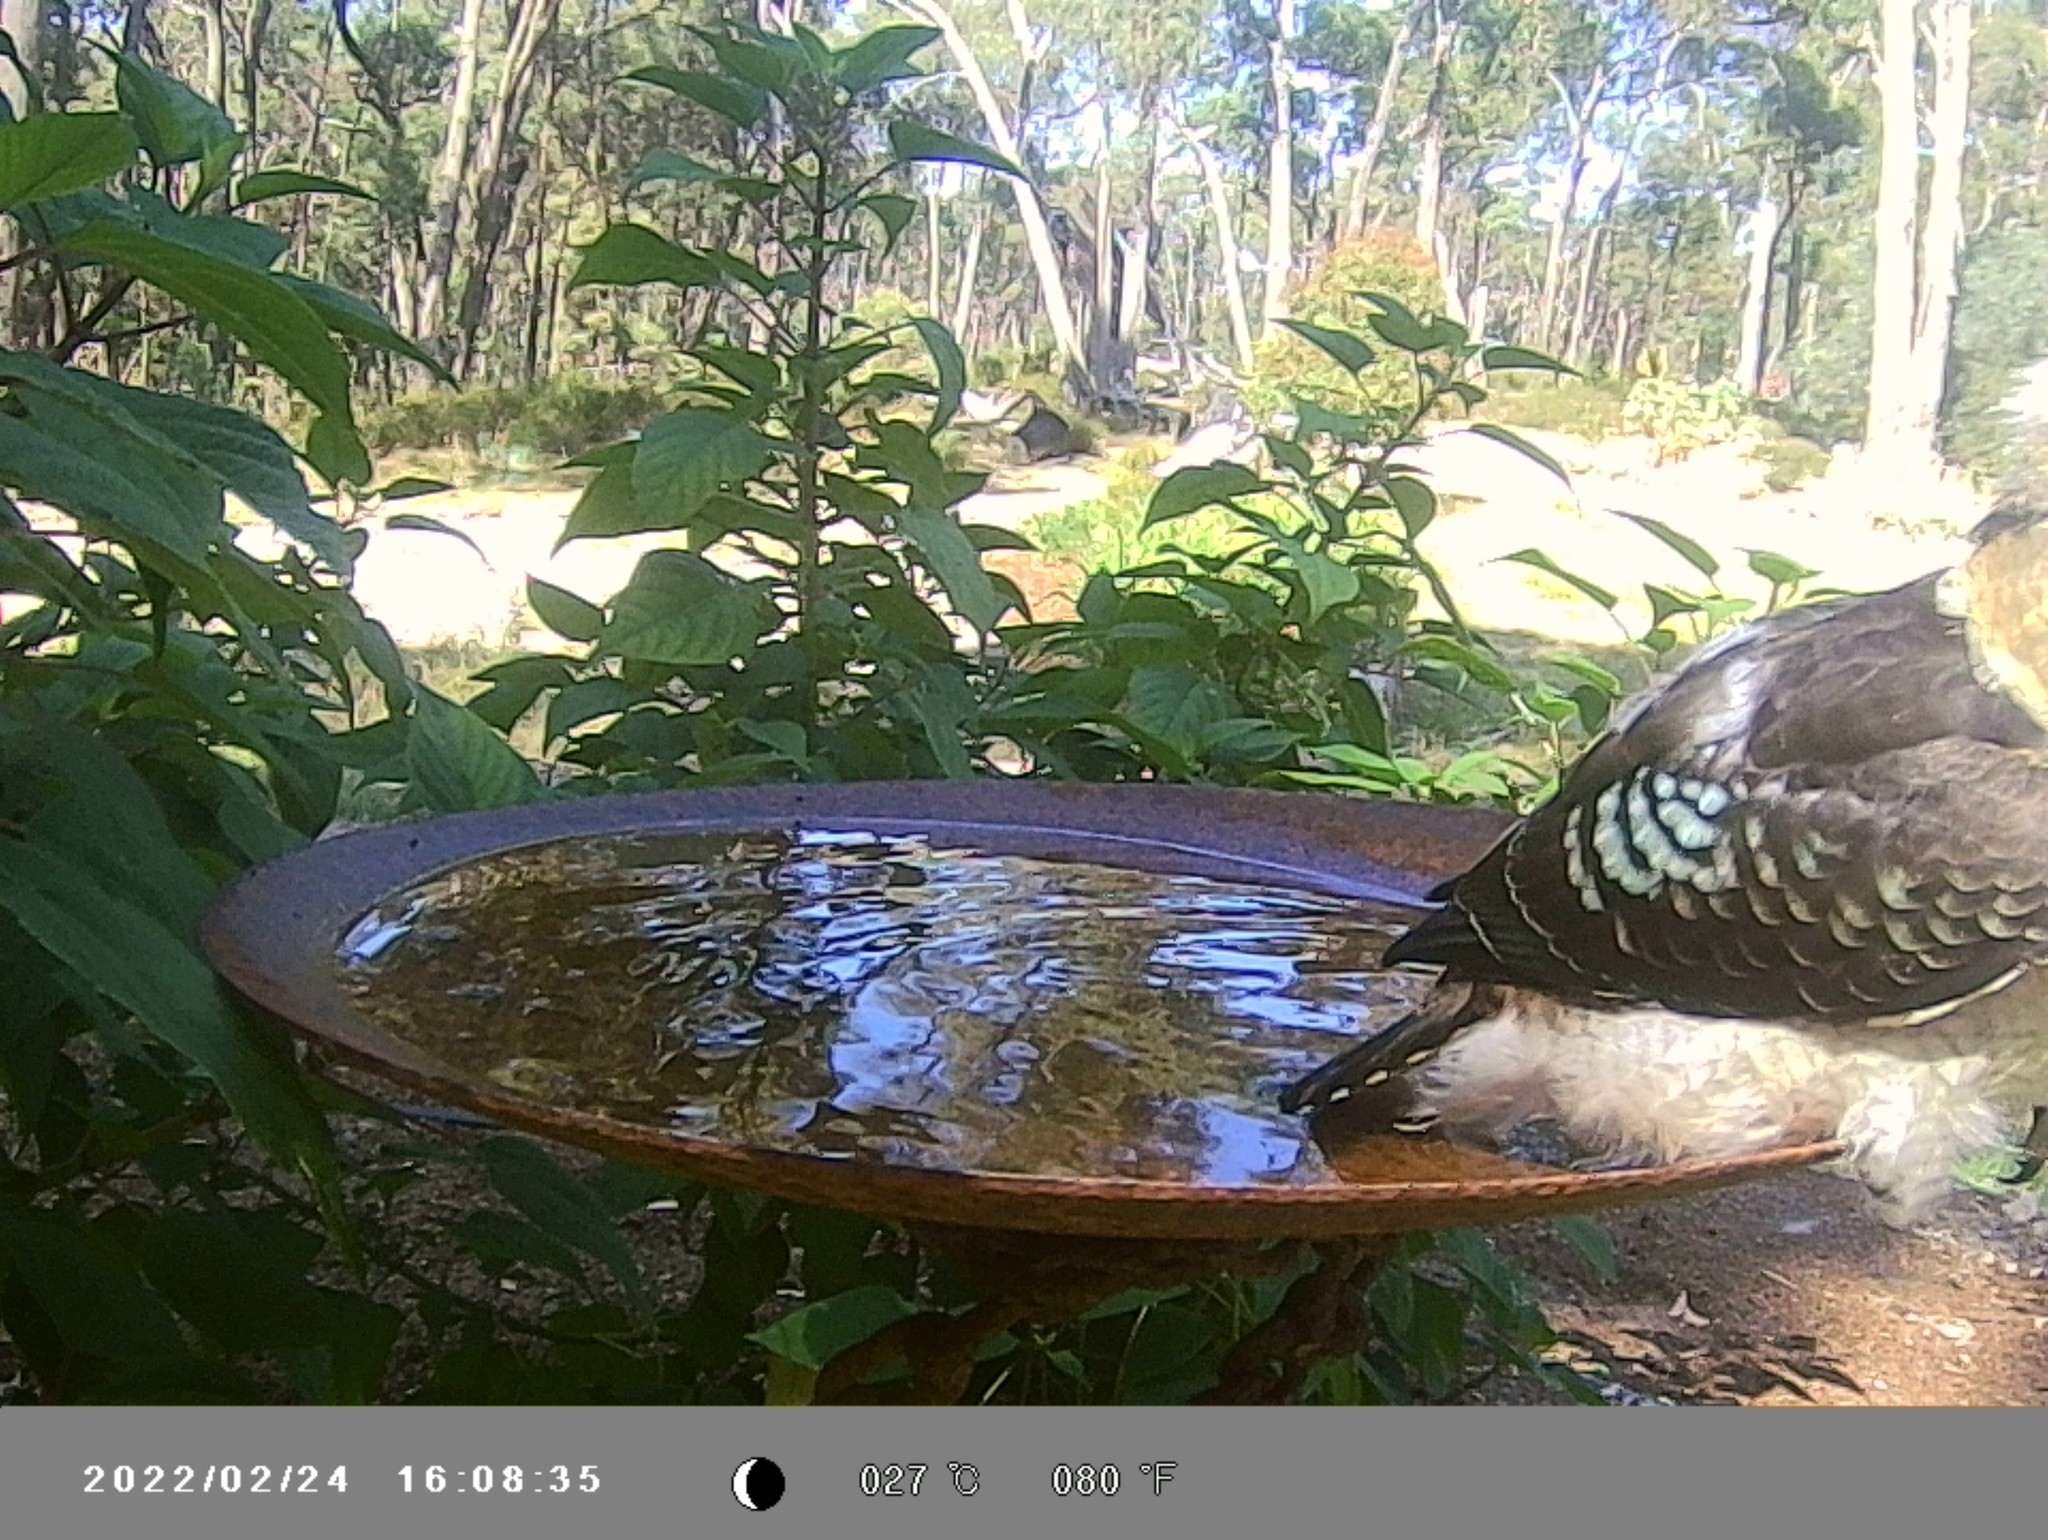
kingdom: Animalia
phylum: Chordata
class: Aves
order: Coraciiformes
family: Alcedinidae
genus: Dacelo
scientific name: Dacelo novaeguineae
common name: Laughing kookaburra
